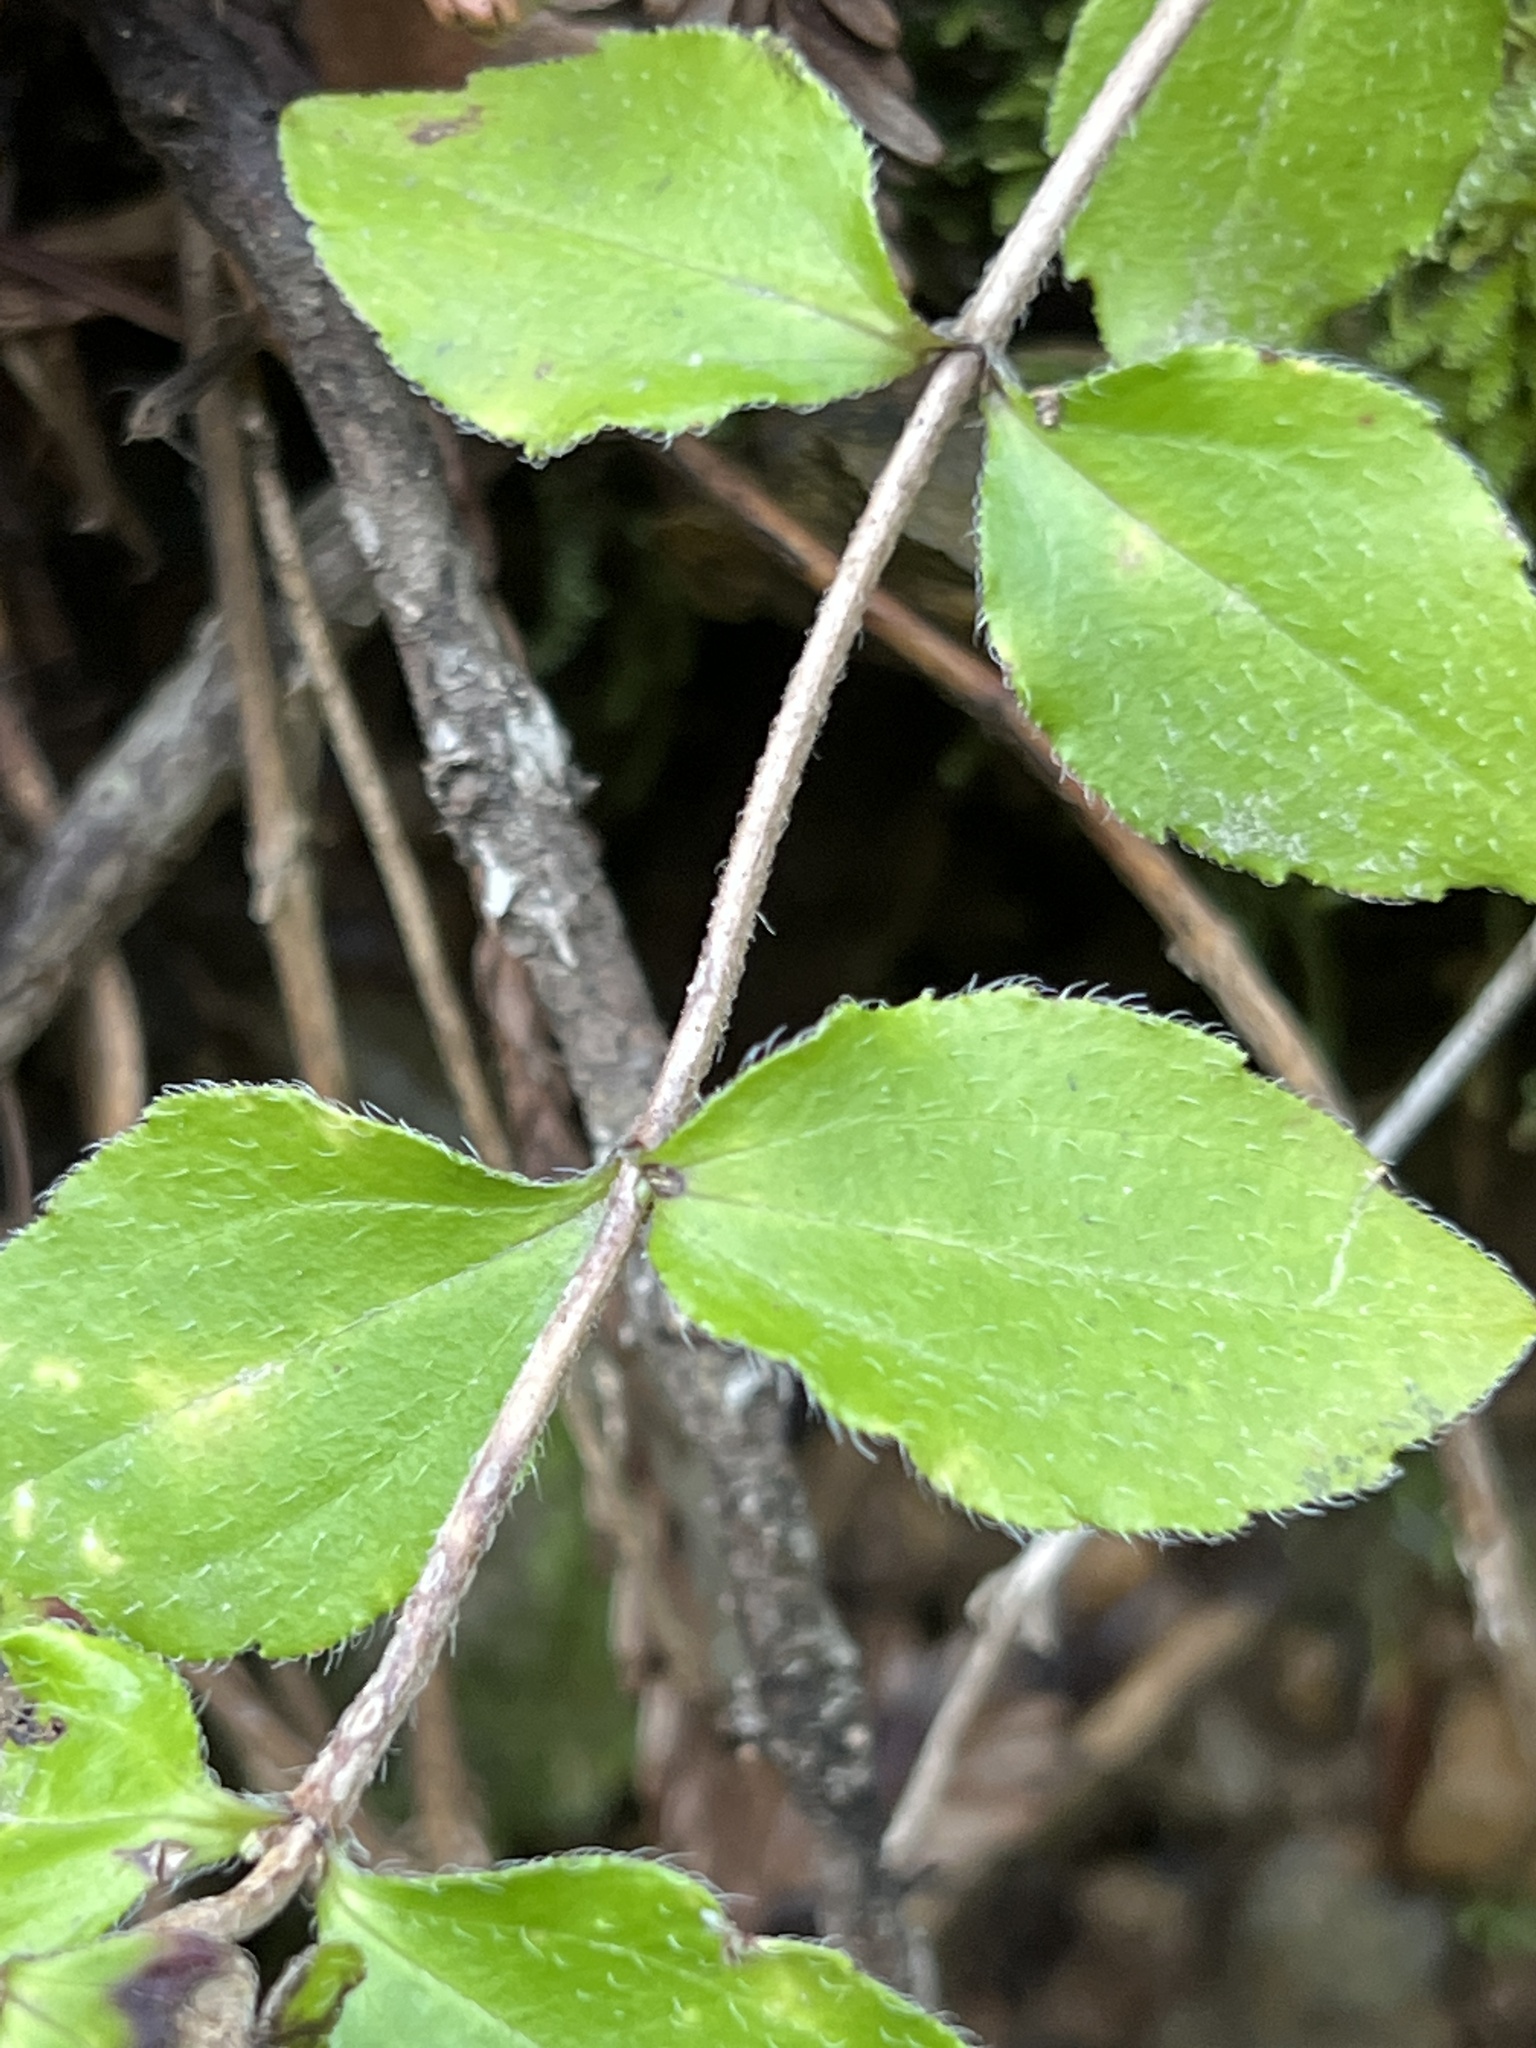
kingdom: Plantae
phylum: Tracheophyta
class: Magnoliopsida
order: Cornales
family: Hydrangeaceae
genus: Whipplea
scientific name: Whipplea modesta
